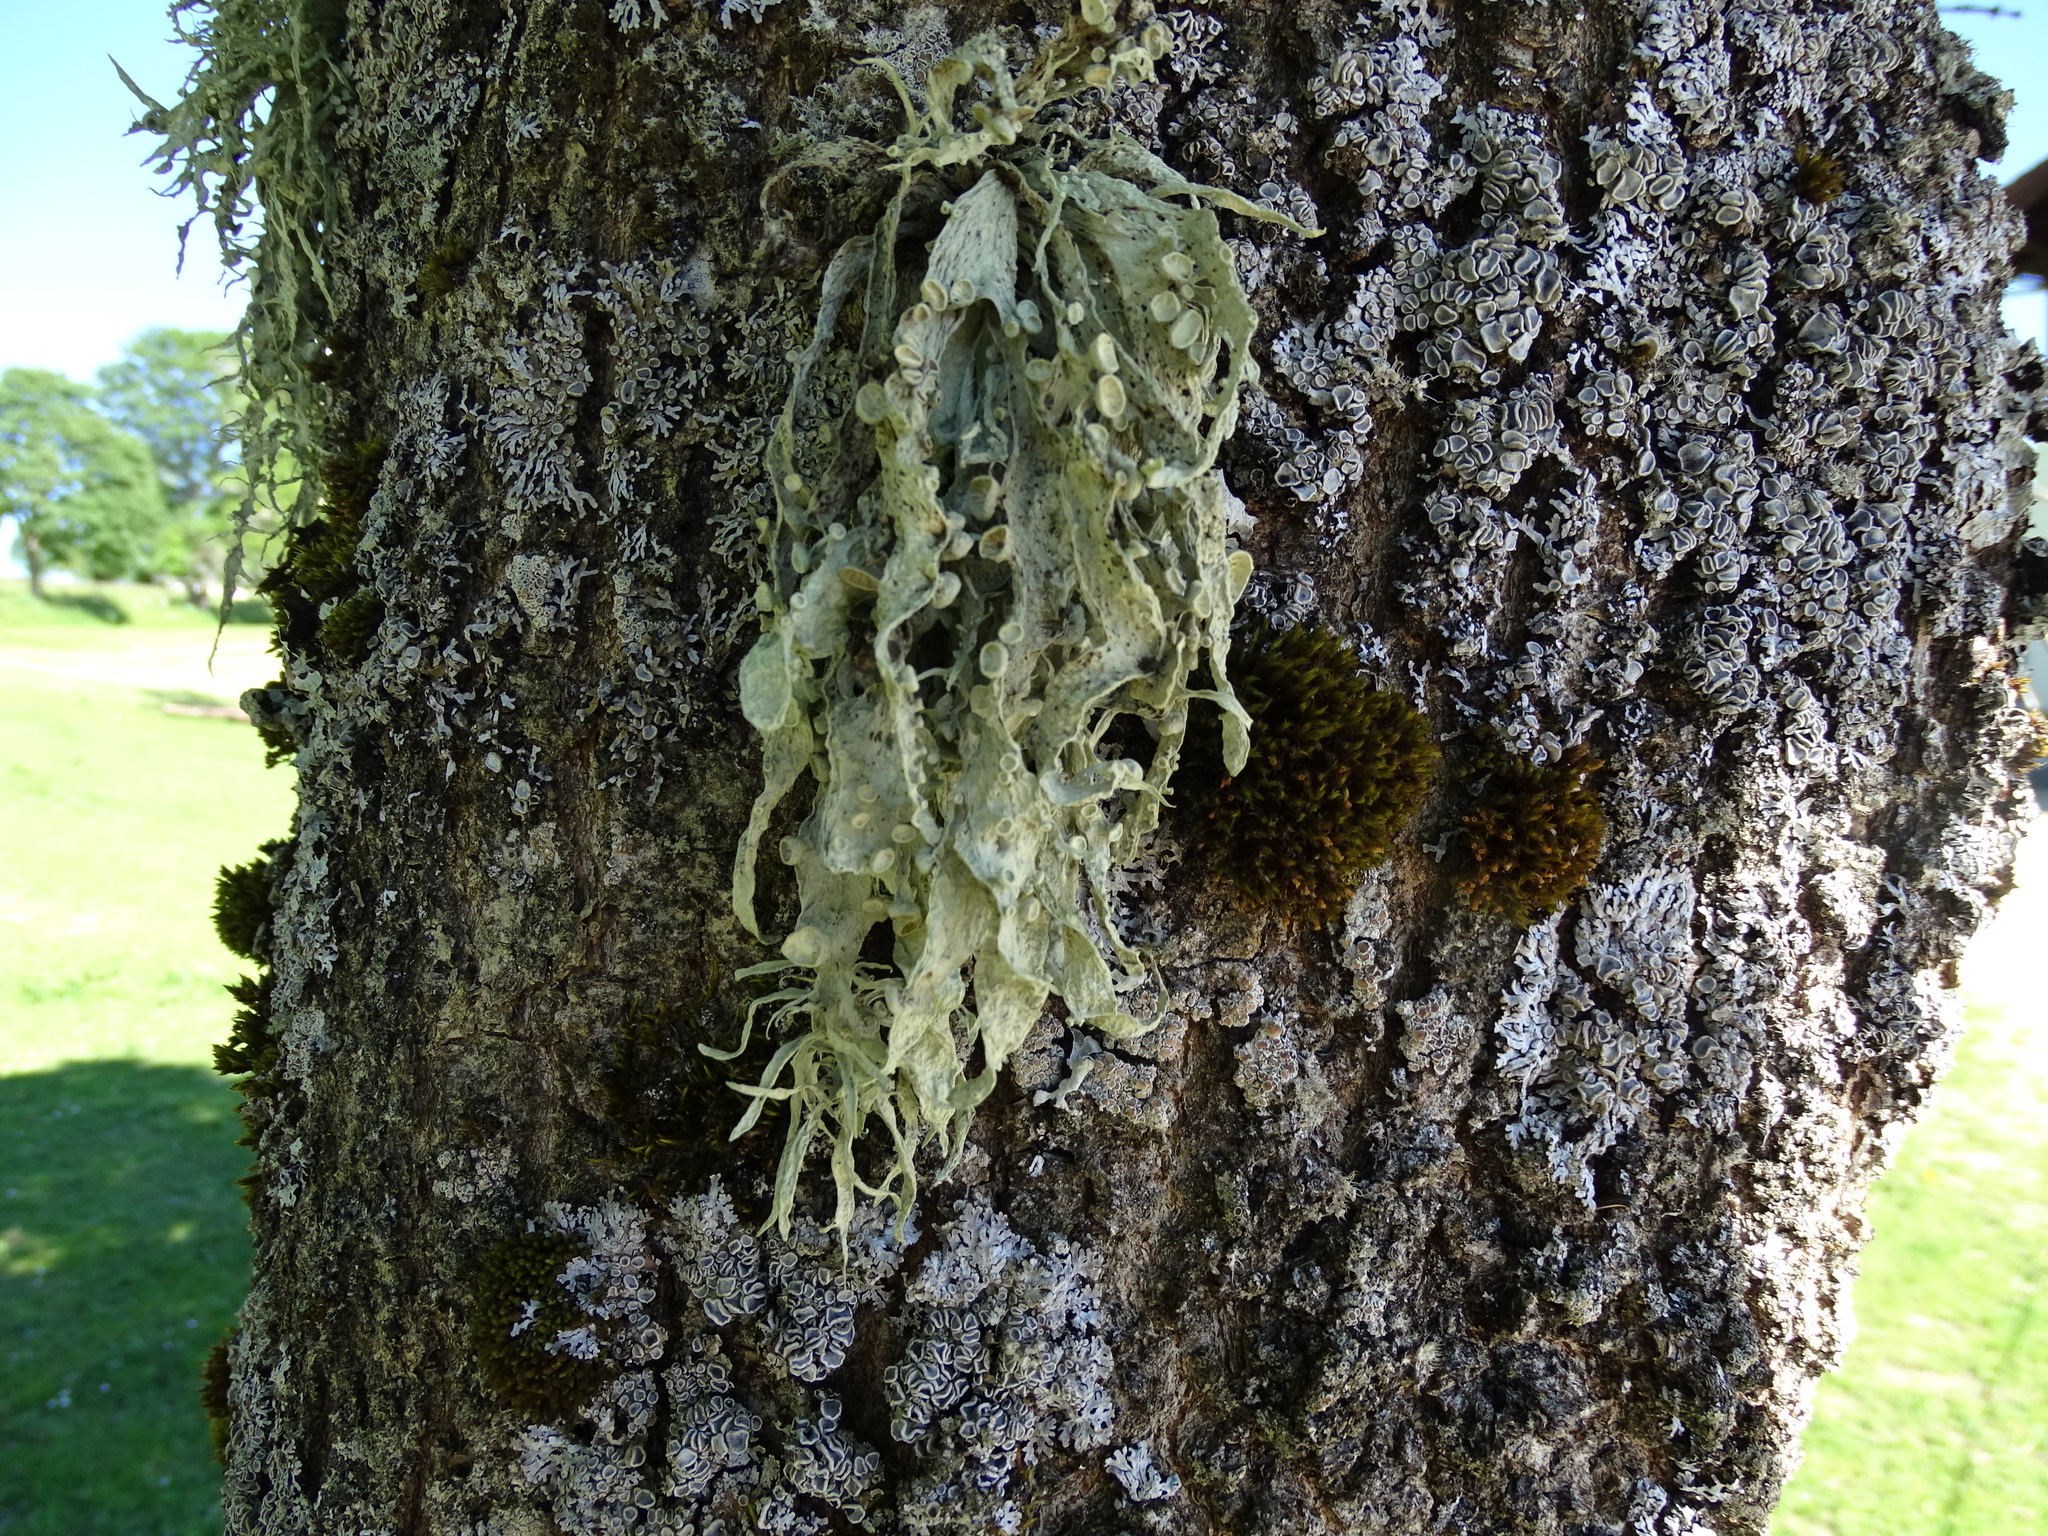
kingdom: Fungi
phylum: Ascomycota
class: Lecanoromycetes
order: Lecanorales
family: Ramalinaceae
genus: Ramalina
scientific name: Ramalina fraxinea
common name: Cartilage lichen
